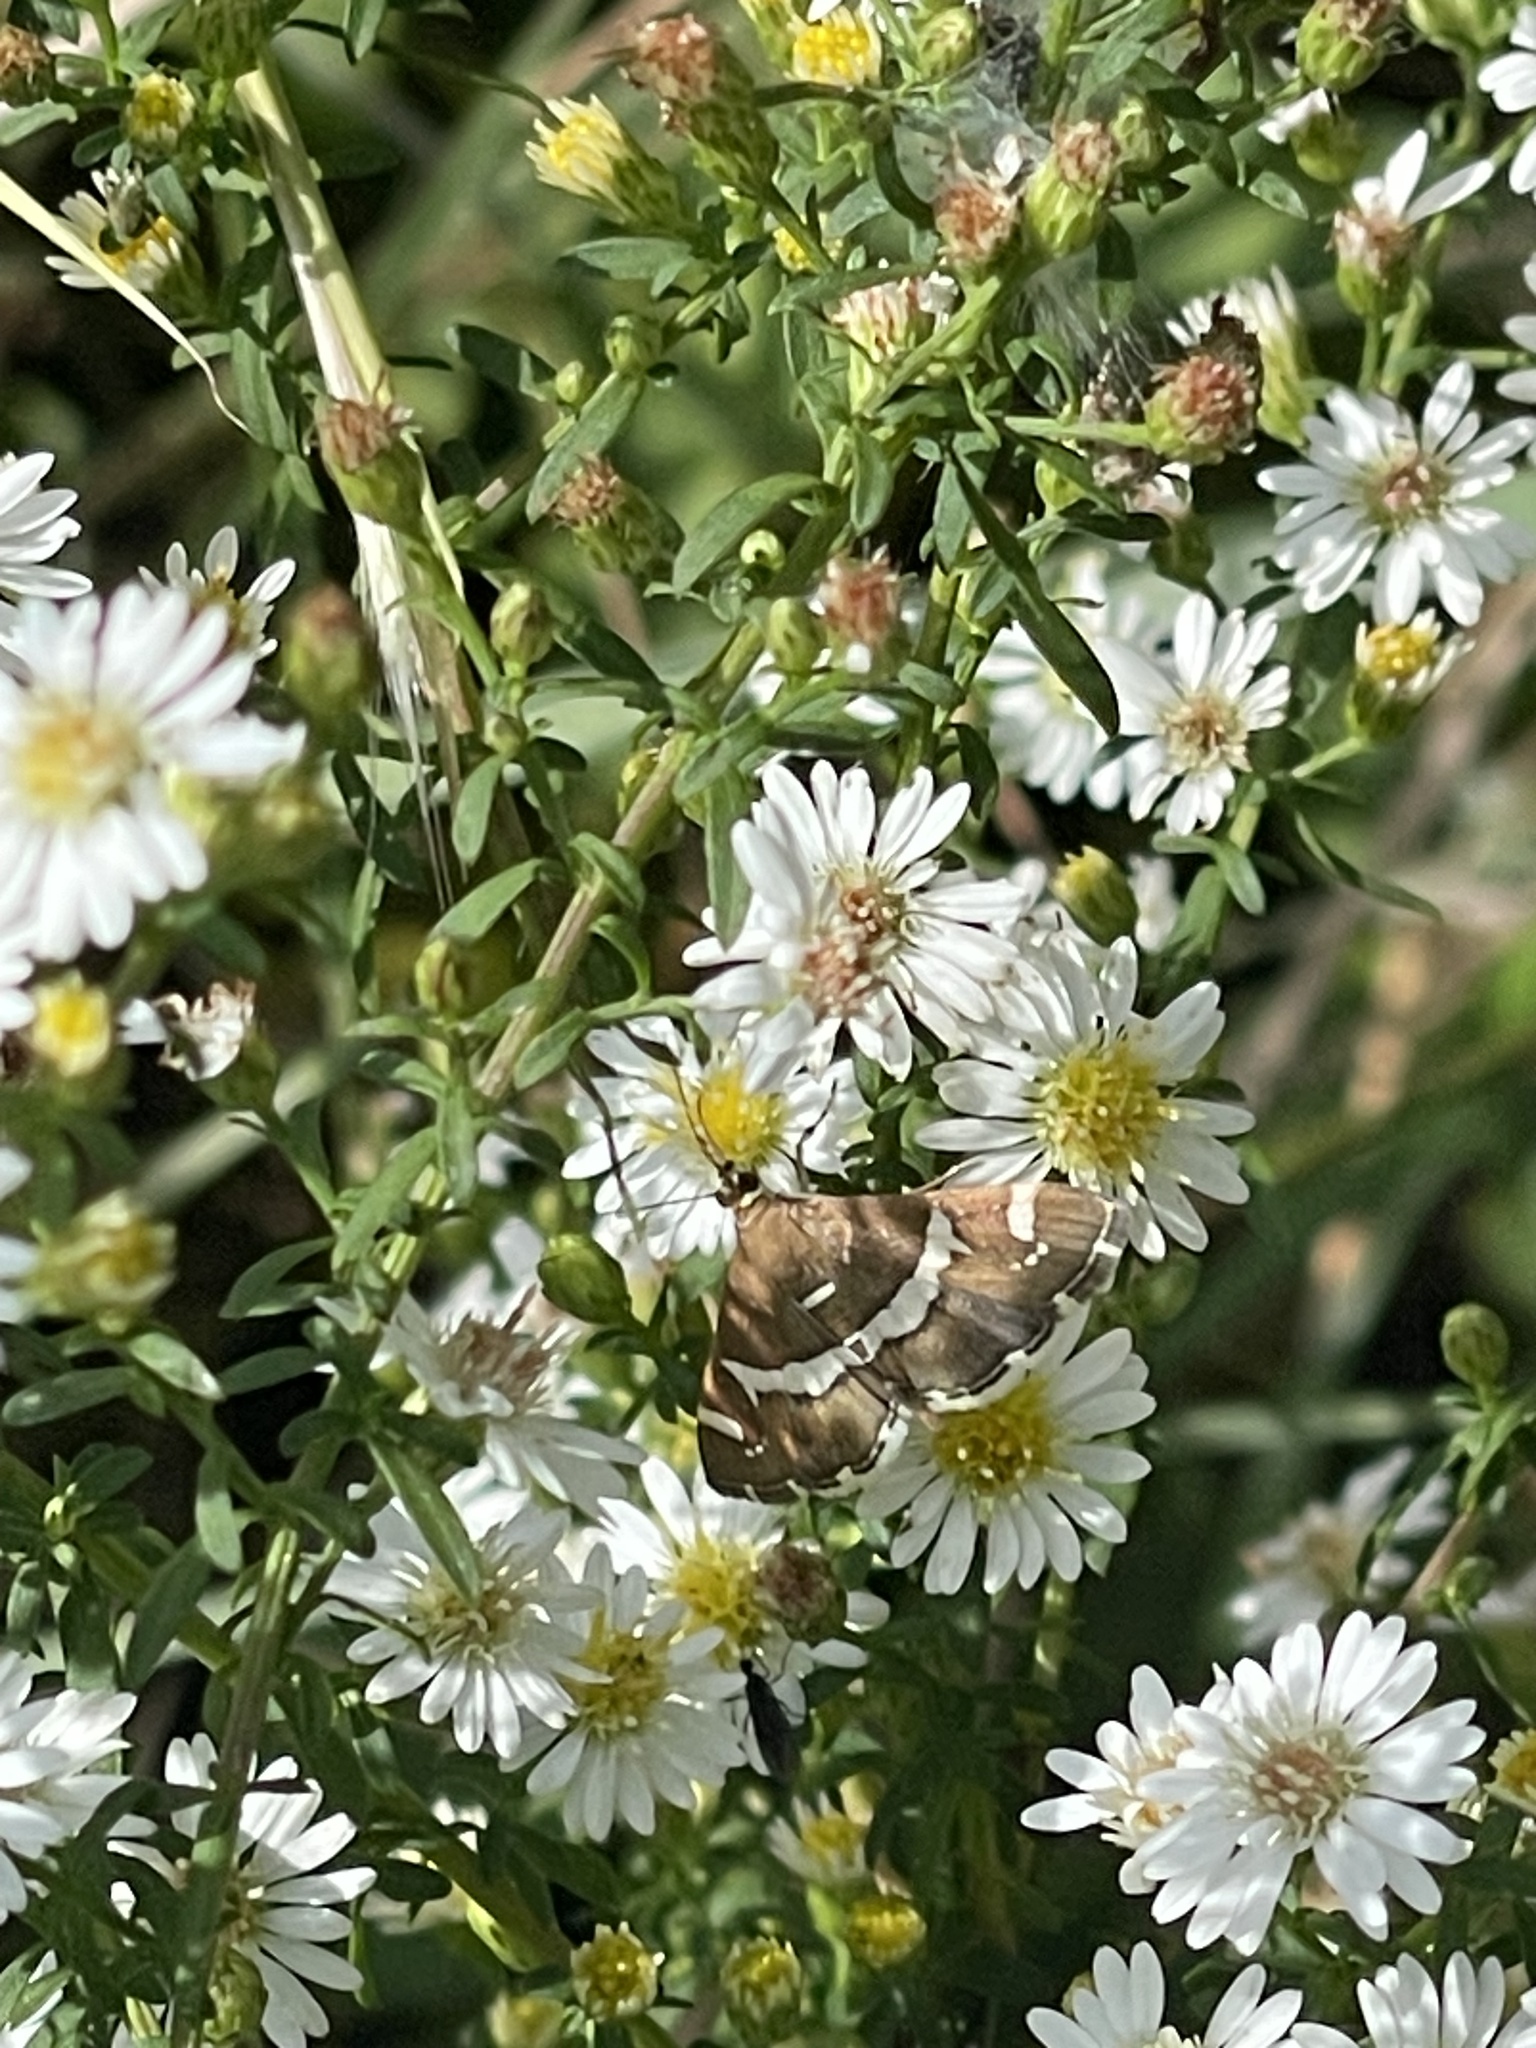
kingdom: Animalia
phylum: Arthropoda
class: Insecta
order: Lepidoptera
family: Crambidae
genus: Spoladea
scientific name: Spoladea recurvalis
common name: Beet webworm moth
